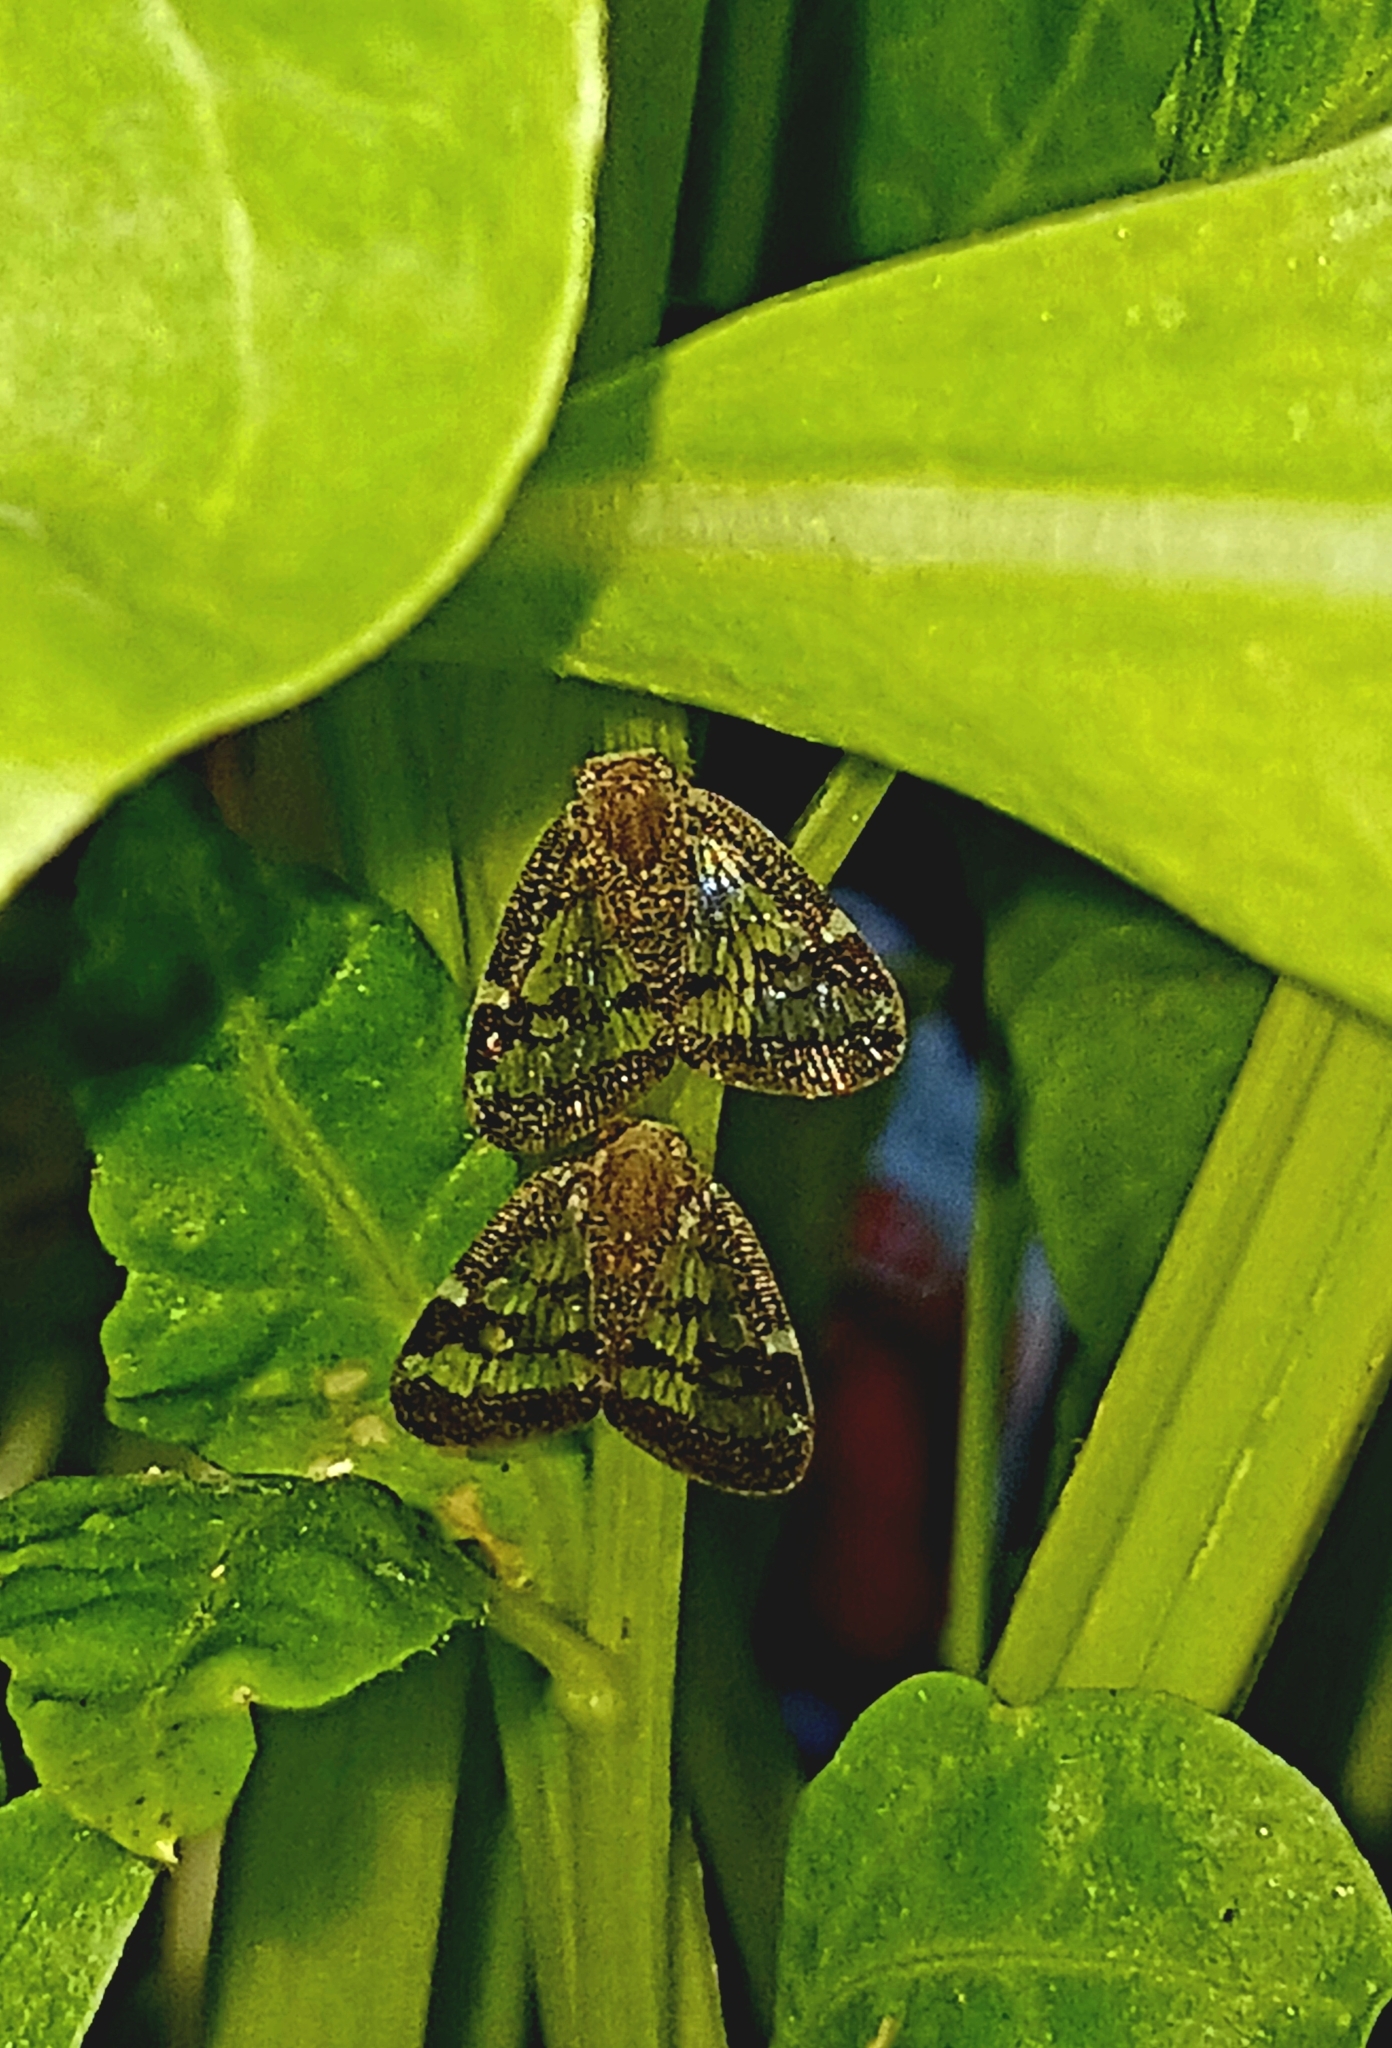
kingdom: Animalia
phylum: Arthropoda
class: Insecta
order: Hemiptera
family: Ricaniidae
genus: Scolypopa
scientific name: Scolypopa australis
